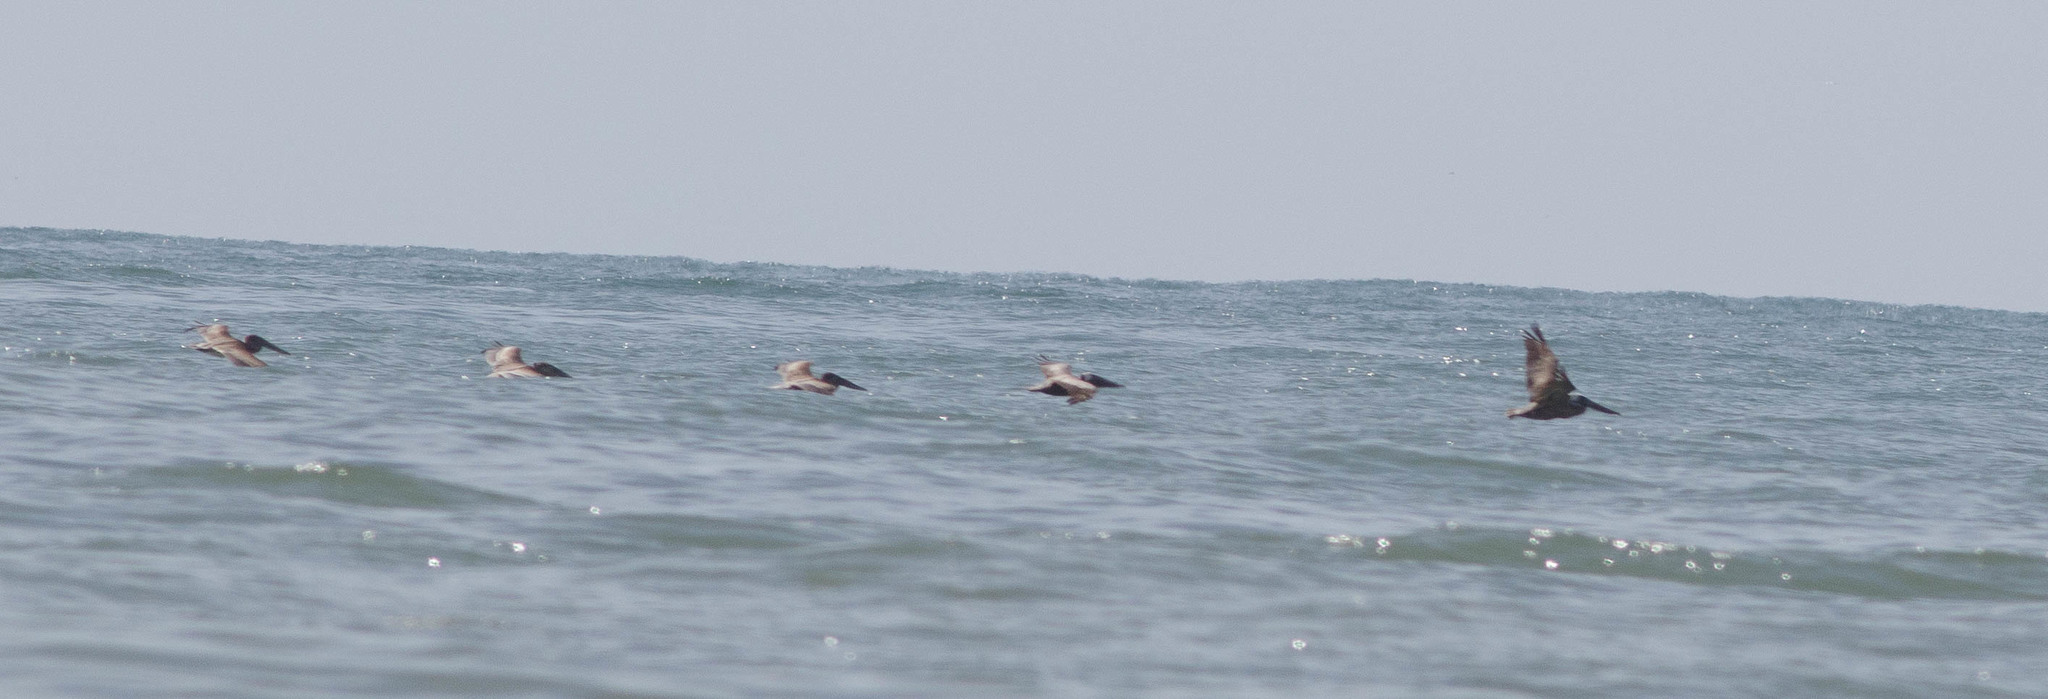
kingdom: Animalia
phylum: Chordata
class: Aves
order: Pelecaniformes
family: Pelecanidae
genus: Pelecanus
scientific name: Pelecanus occidentalis
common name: Brown pelican
